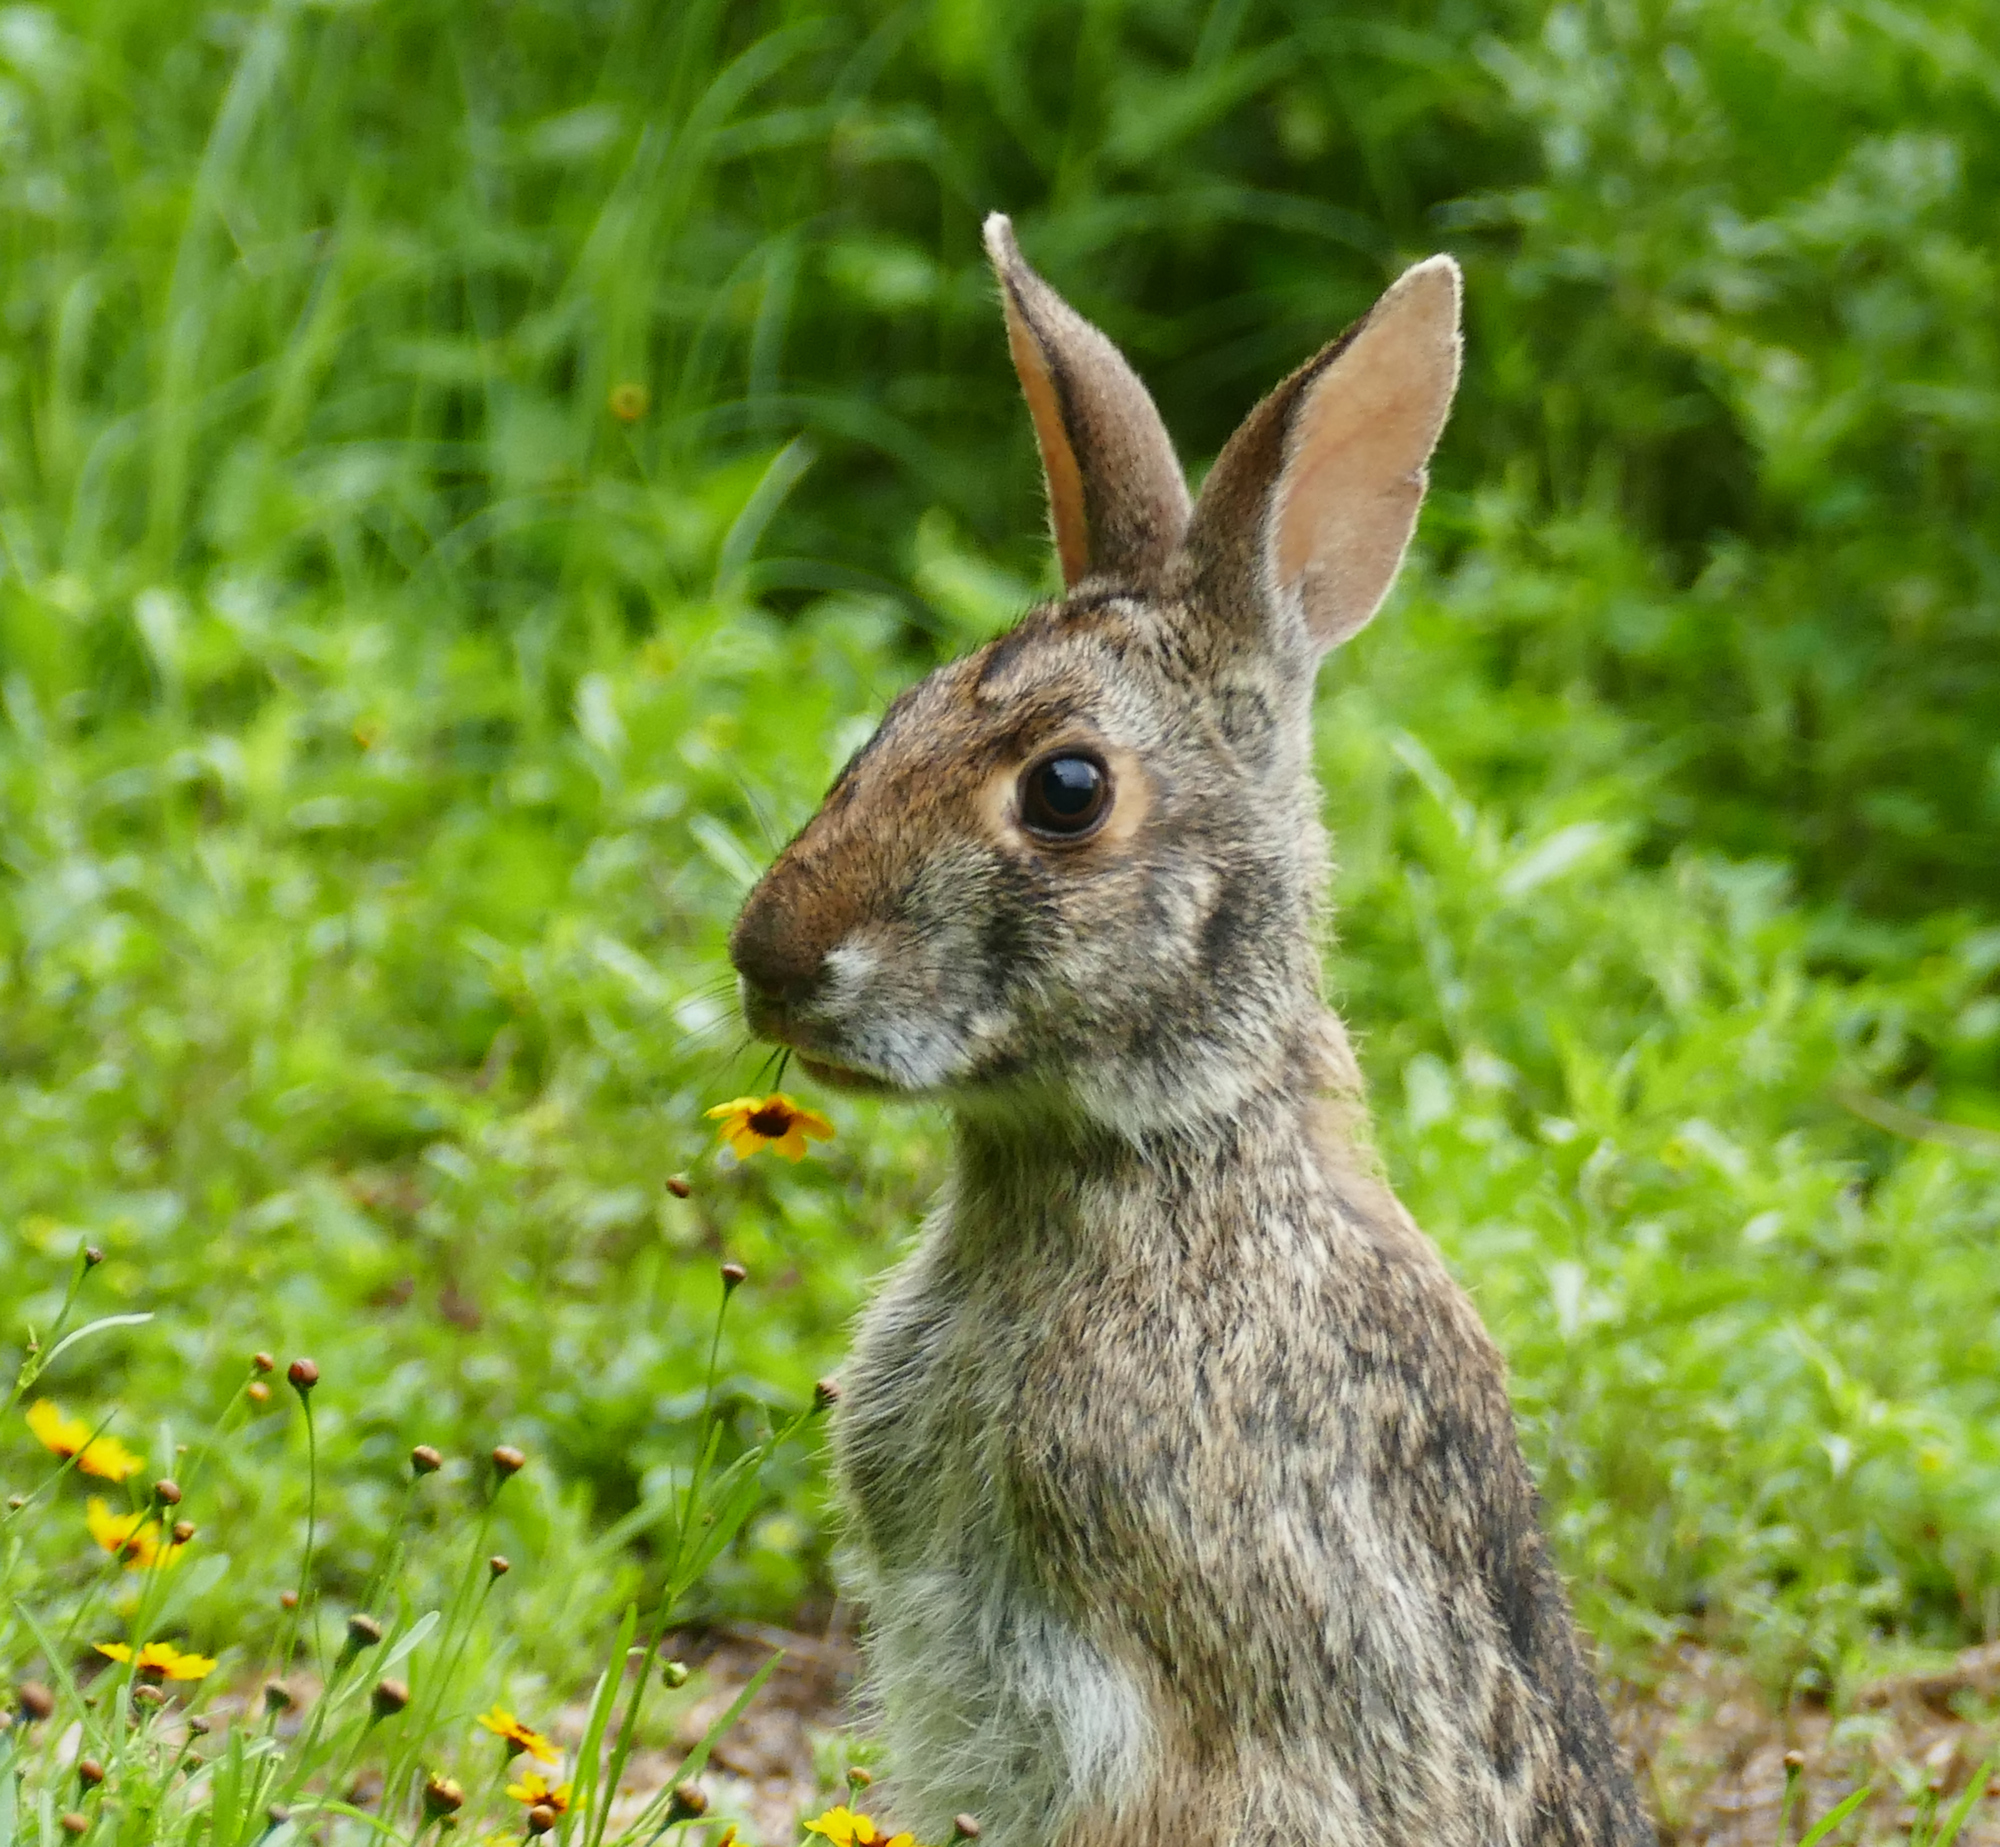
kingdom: Animalia
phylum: Chordata
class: Mammalia
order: Lagomorpha
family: Leporidae
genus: Sylvilagus
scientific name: Sylvilagus aquaticus
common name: Swamp rabbit
